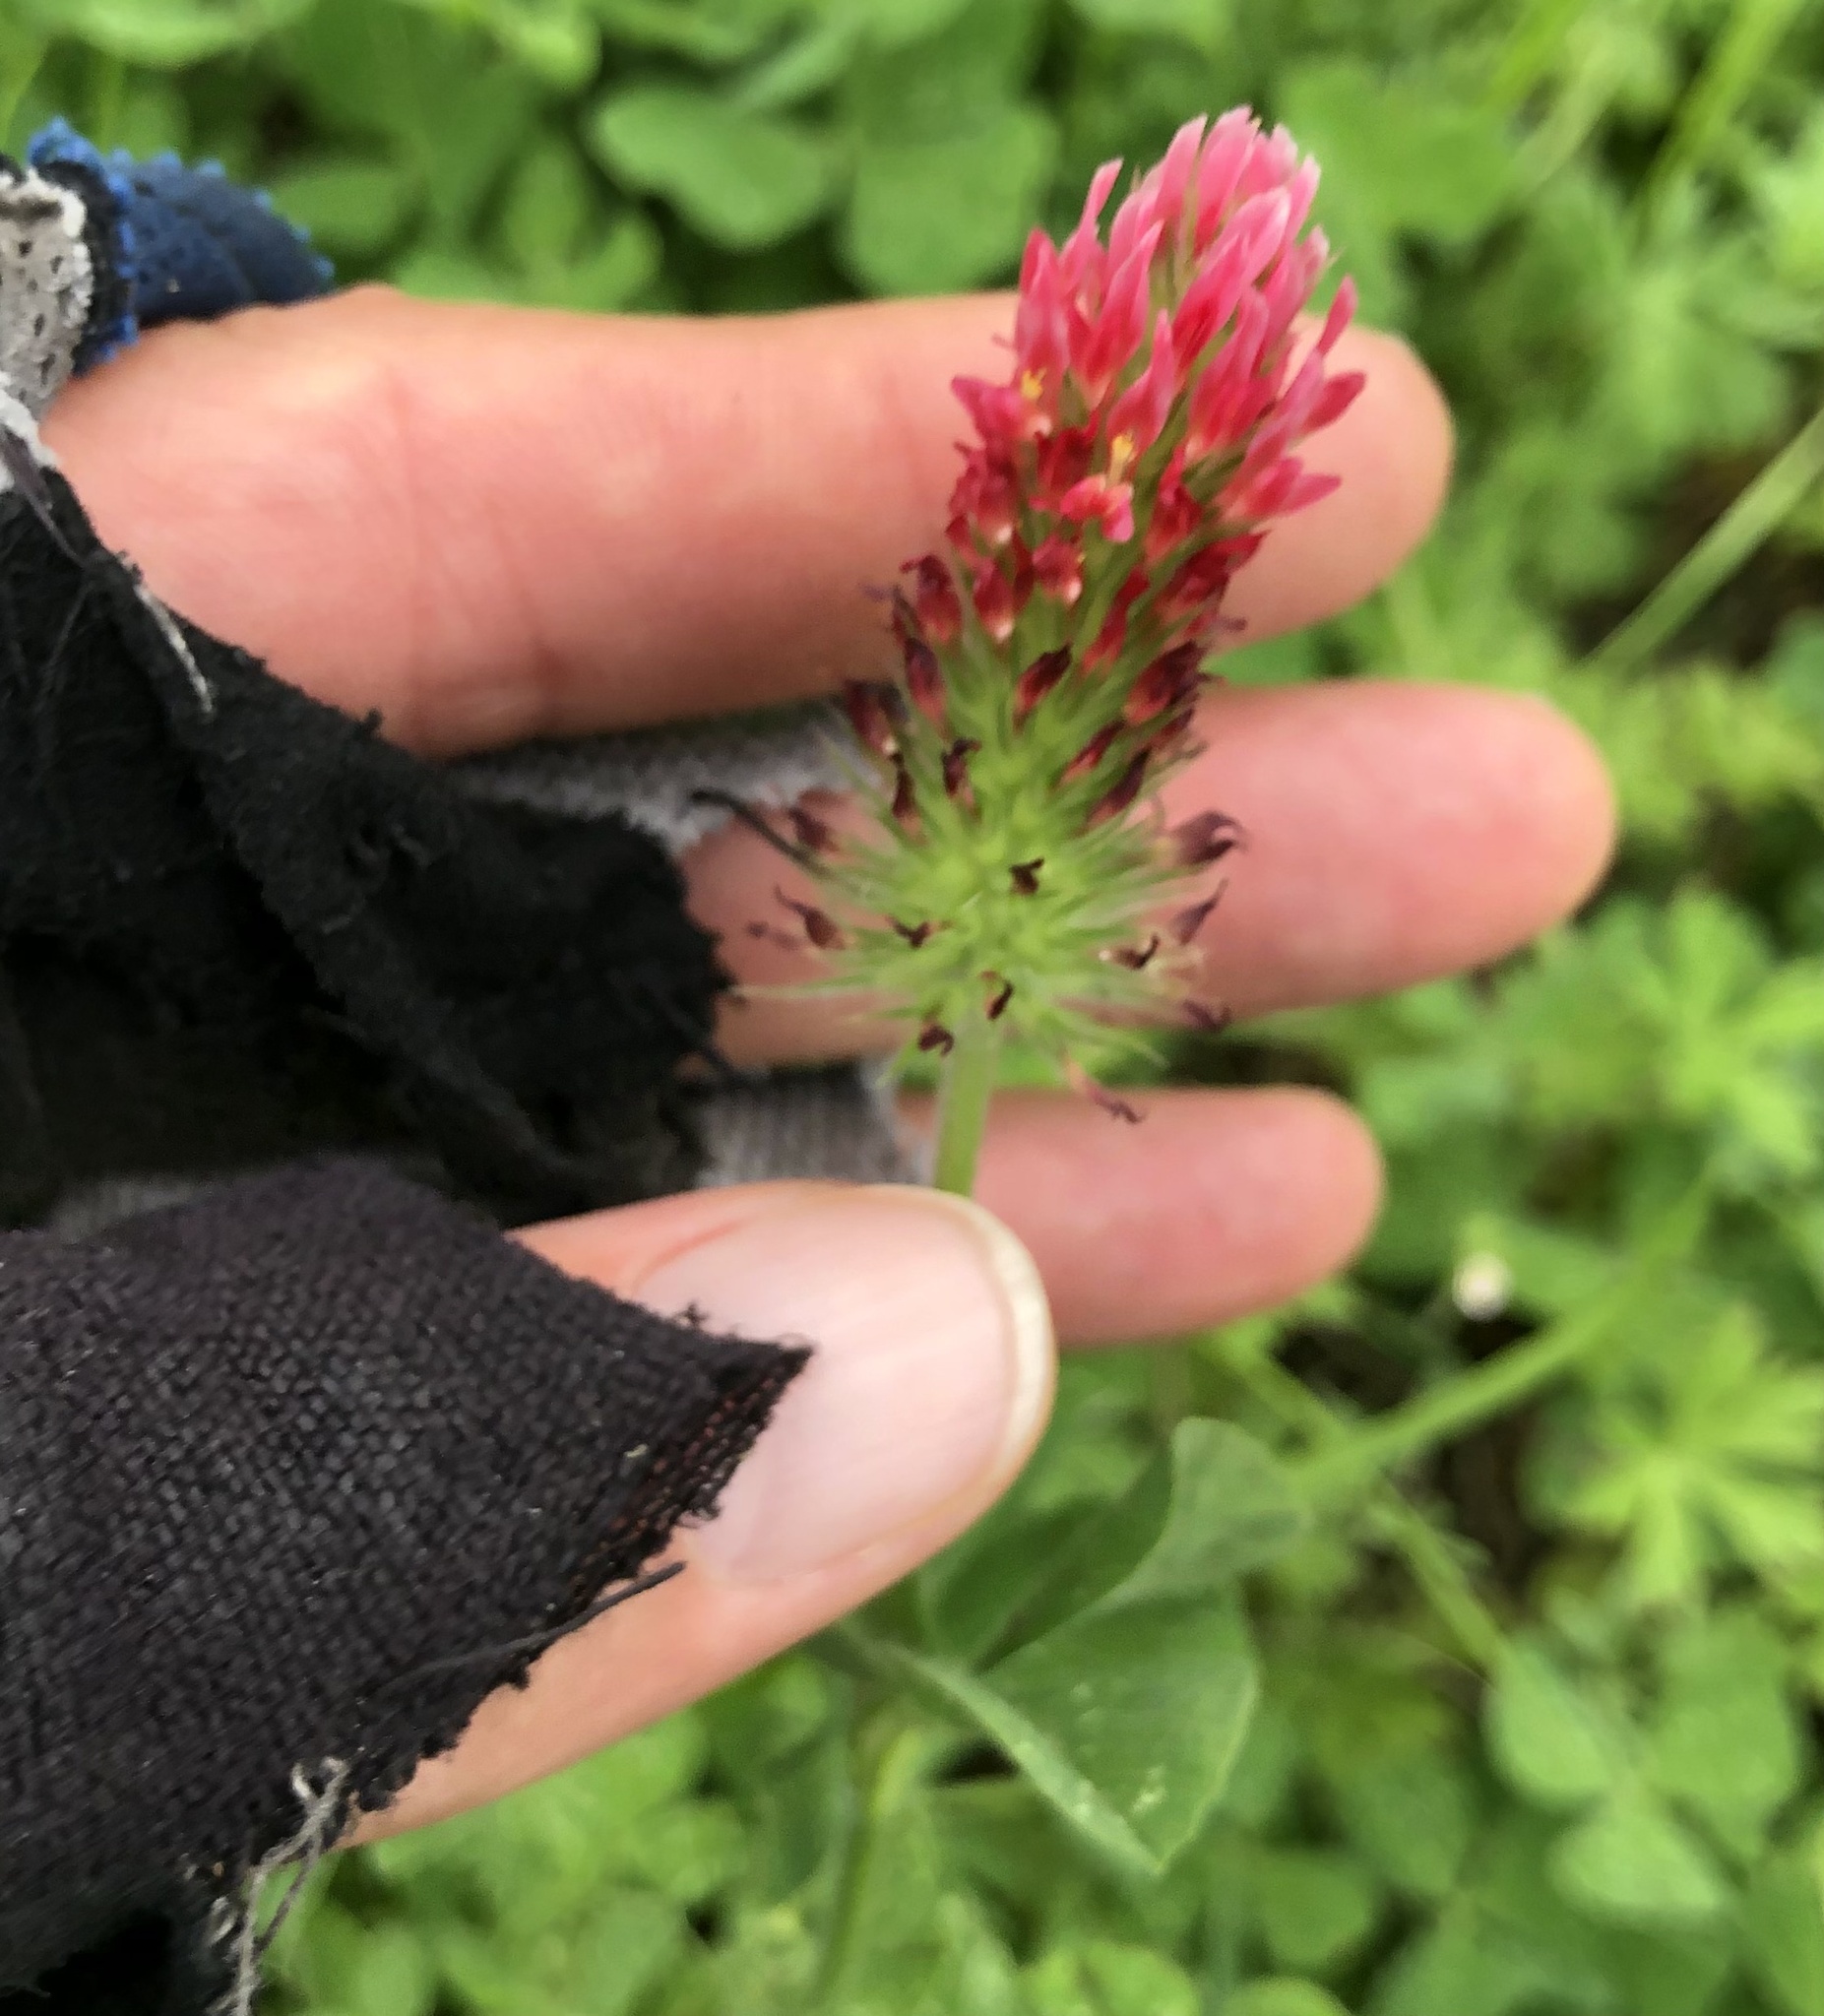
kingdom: Plantae
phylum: Tracheophyta
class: Magnoliopsida
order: Fabales
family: Fabaceae
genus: Trifolium
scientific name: Trifolium incarnatum
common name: Crimson clover
